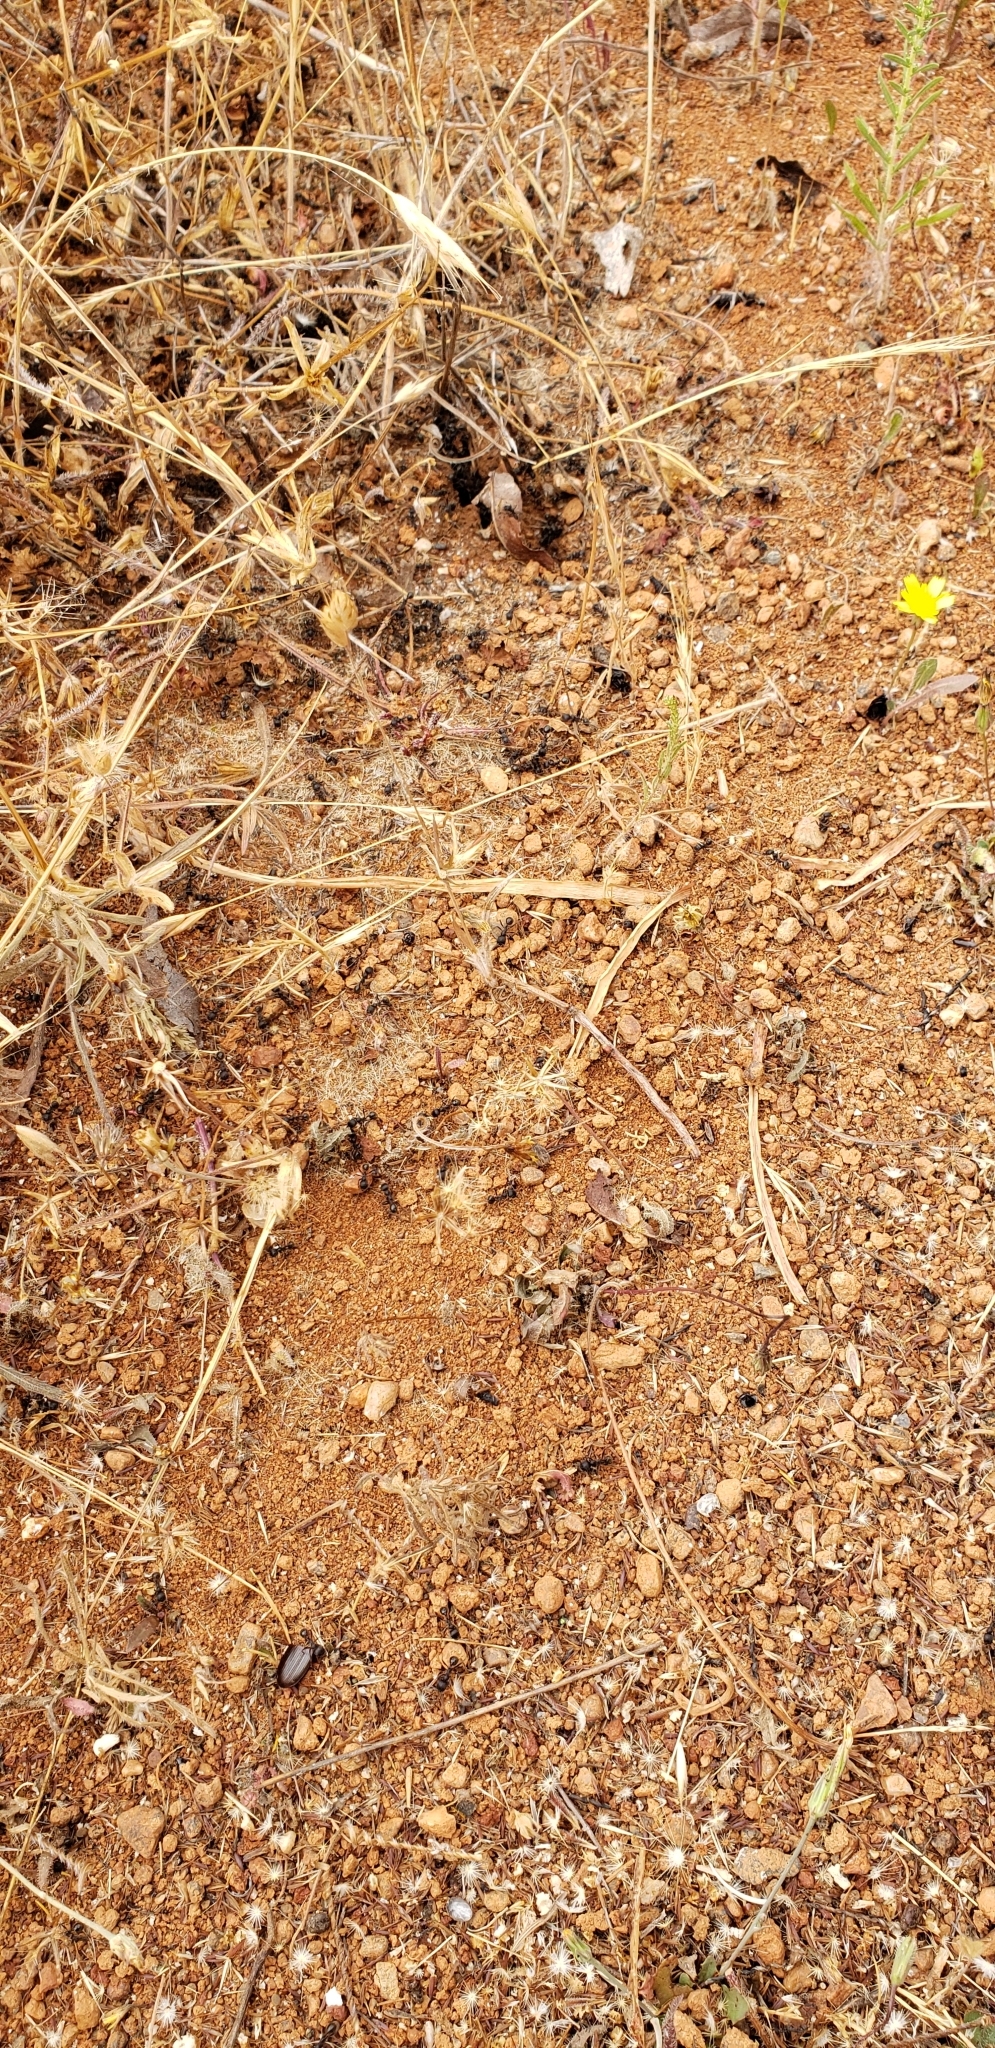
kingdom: Animalia
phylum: Arthropoda
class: Insecta
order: Hymenoptera
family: Formicidae
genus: Veromessor
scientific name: Veromessor andrei
